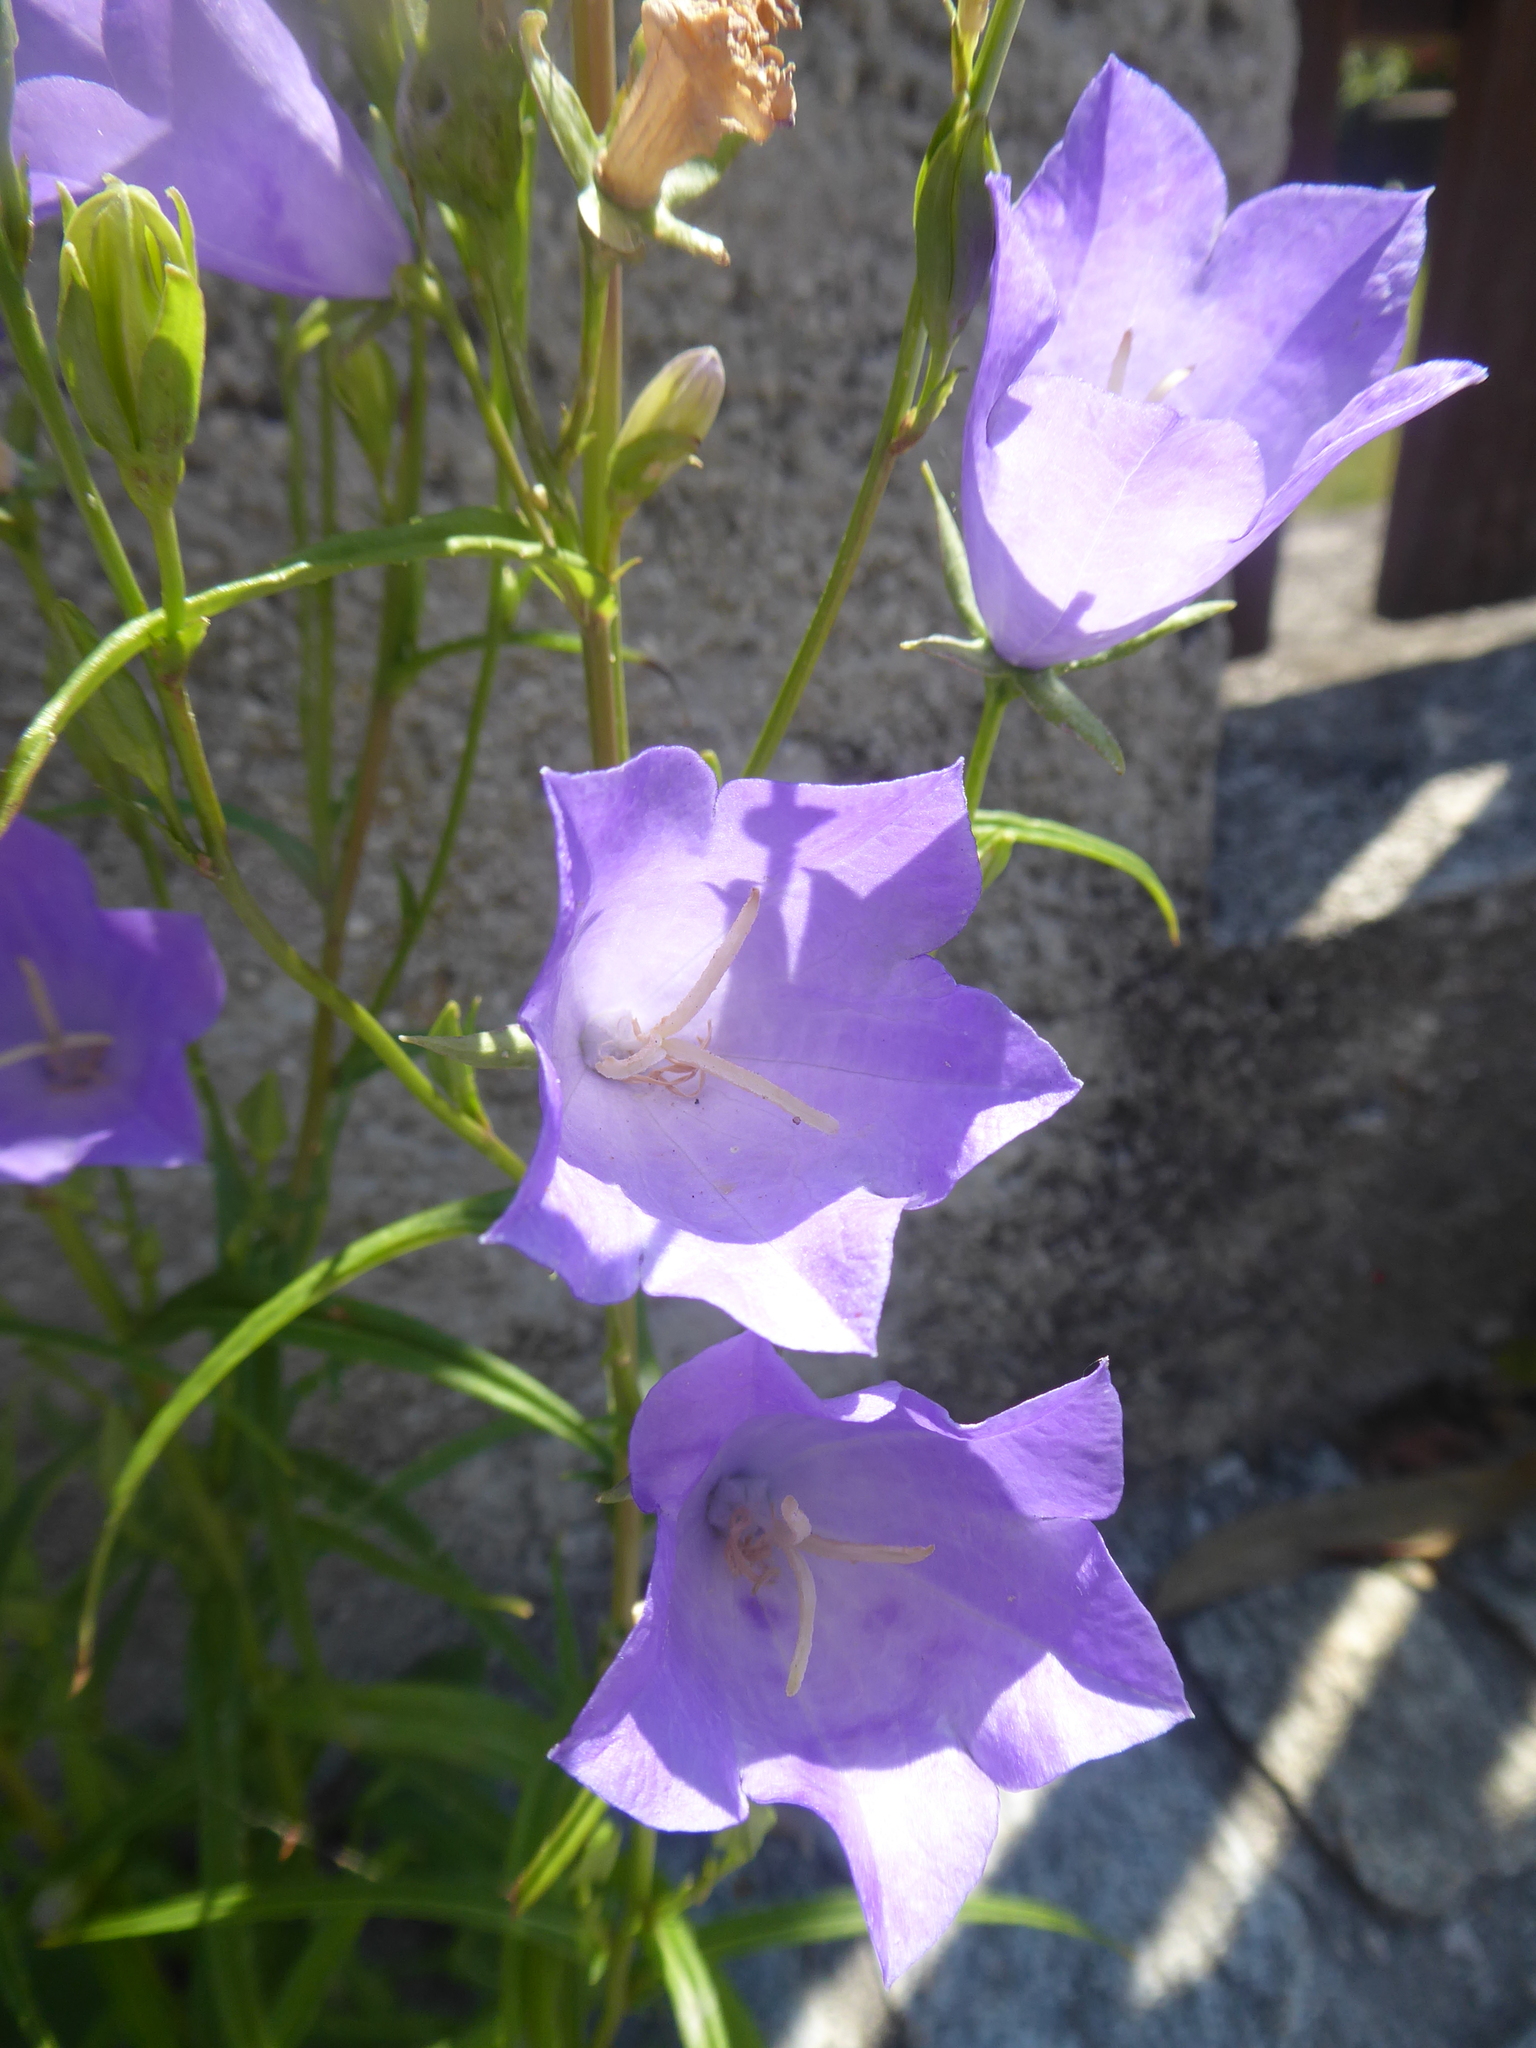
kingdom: Plantae
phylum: Tracheophyta
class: Magnoliopsida
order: Asterales
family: Campanulaceae
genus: Campanula
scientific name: Campanula persicifolia
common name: Peach-leaved bellflower
